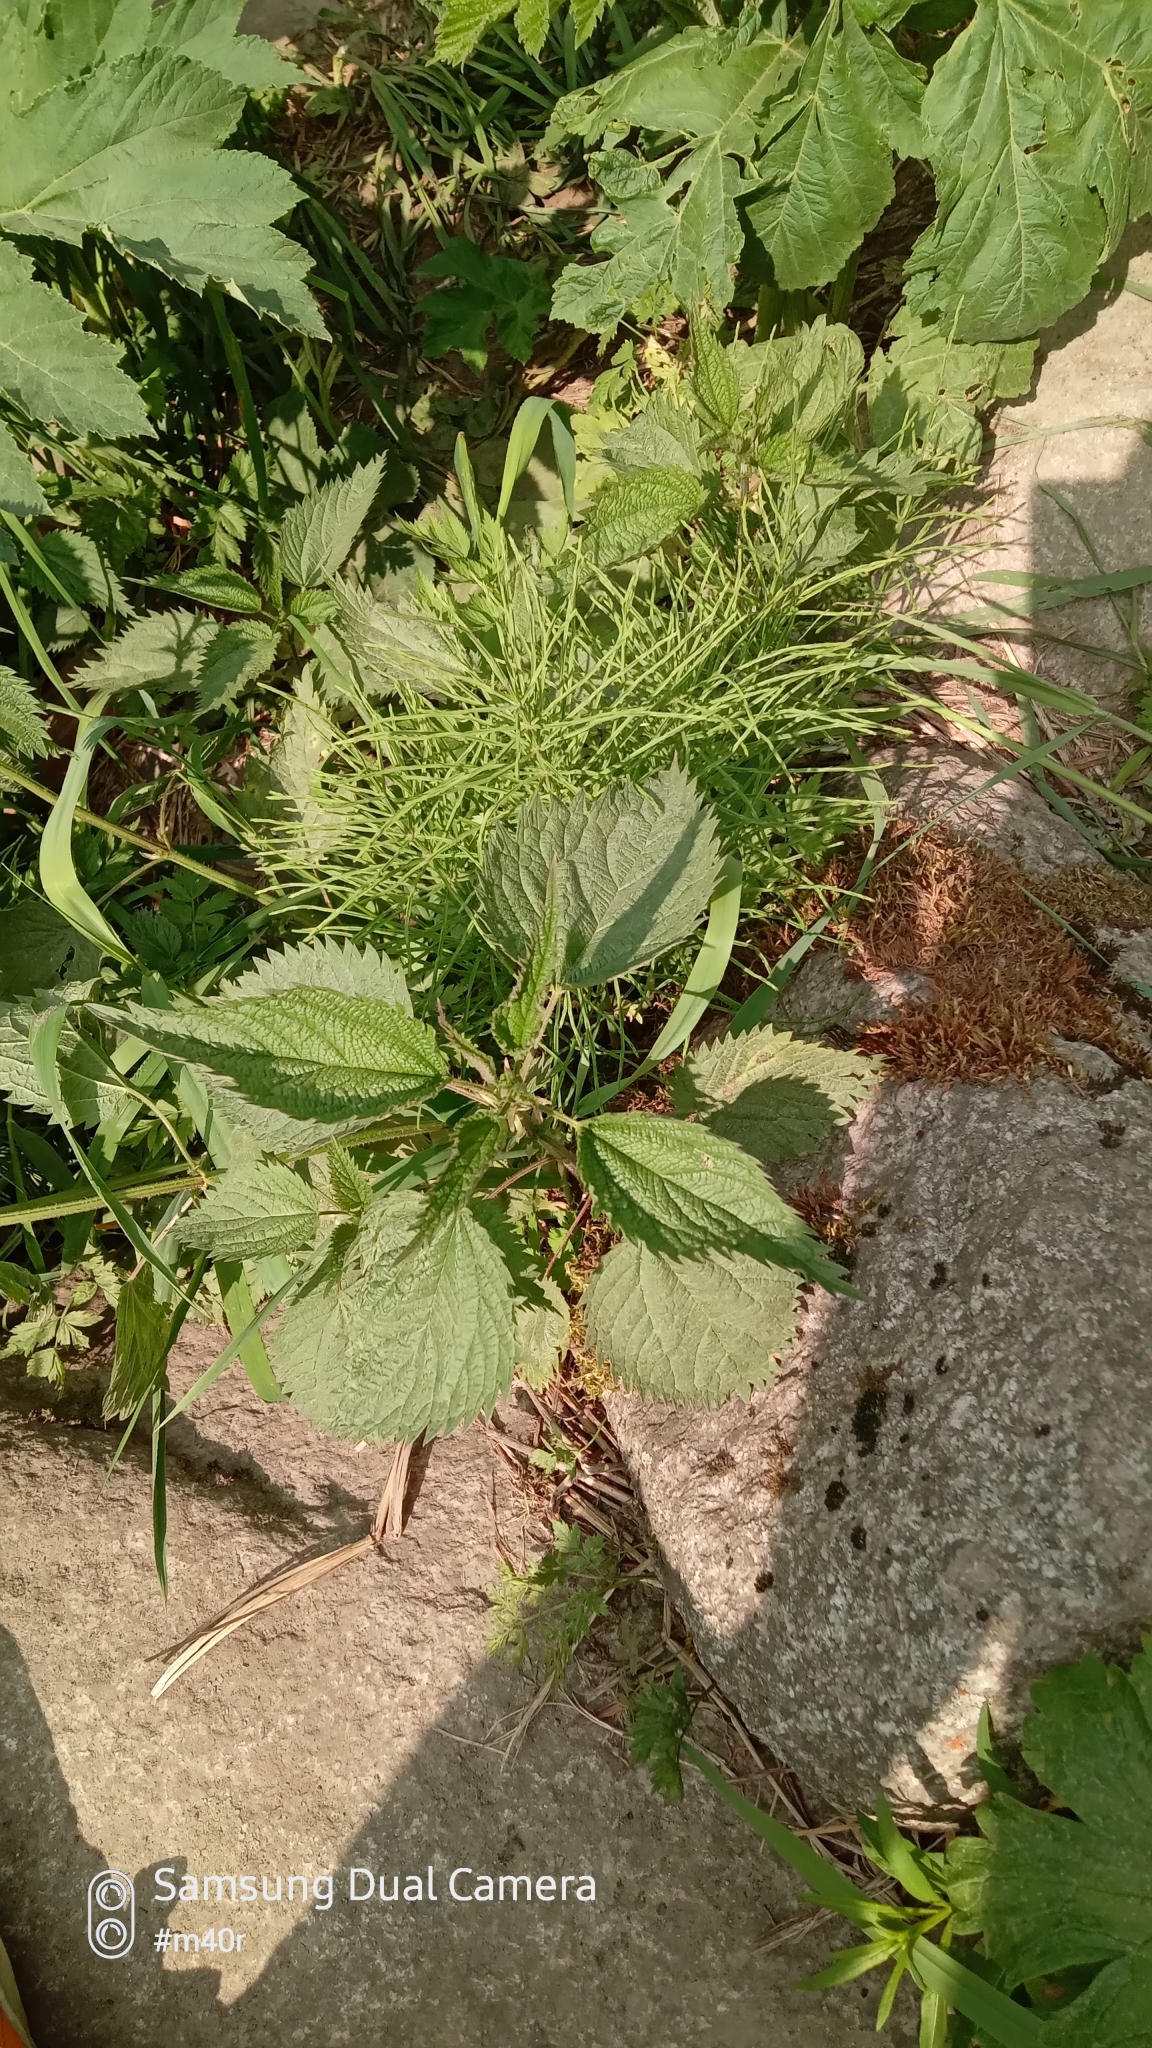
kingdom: Plantae
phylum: Tracheophyta
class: Magnoliopsida
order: Rosales
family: Urticaceae
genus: Urtica
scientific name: Urtica dioica
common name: Common nettle
